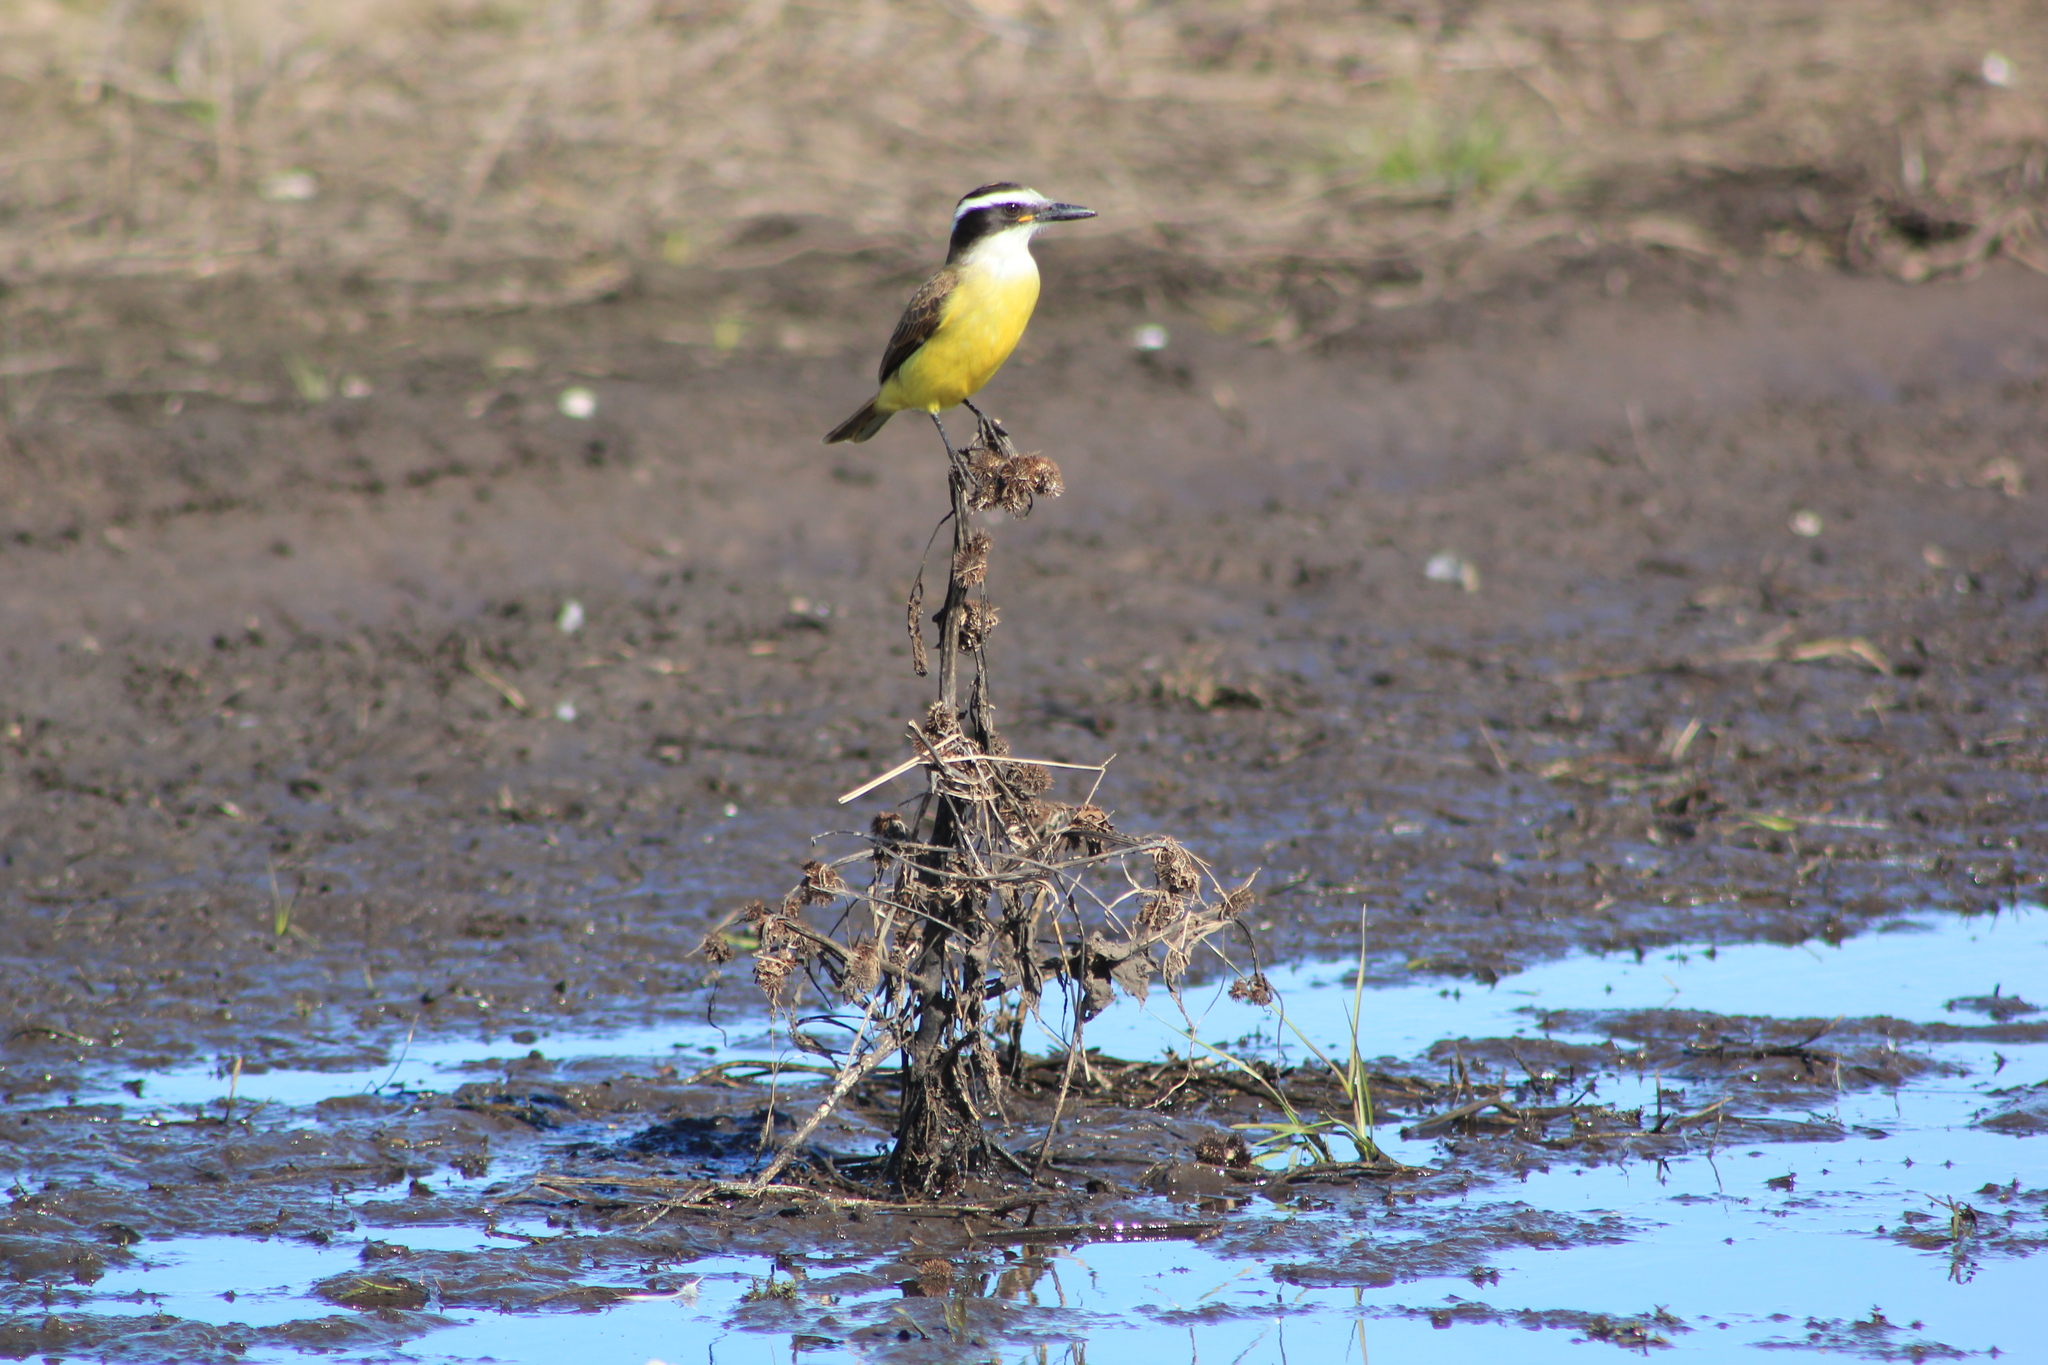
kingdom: Animalia
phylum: Chordata
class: Aves
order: Passeriformes
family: Tyrannidae
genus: Pitangus
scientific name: Pitangus sulphuratus
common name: Great kiskadee
